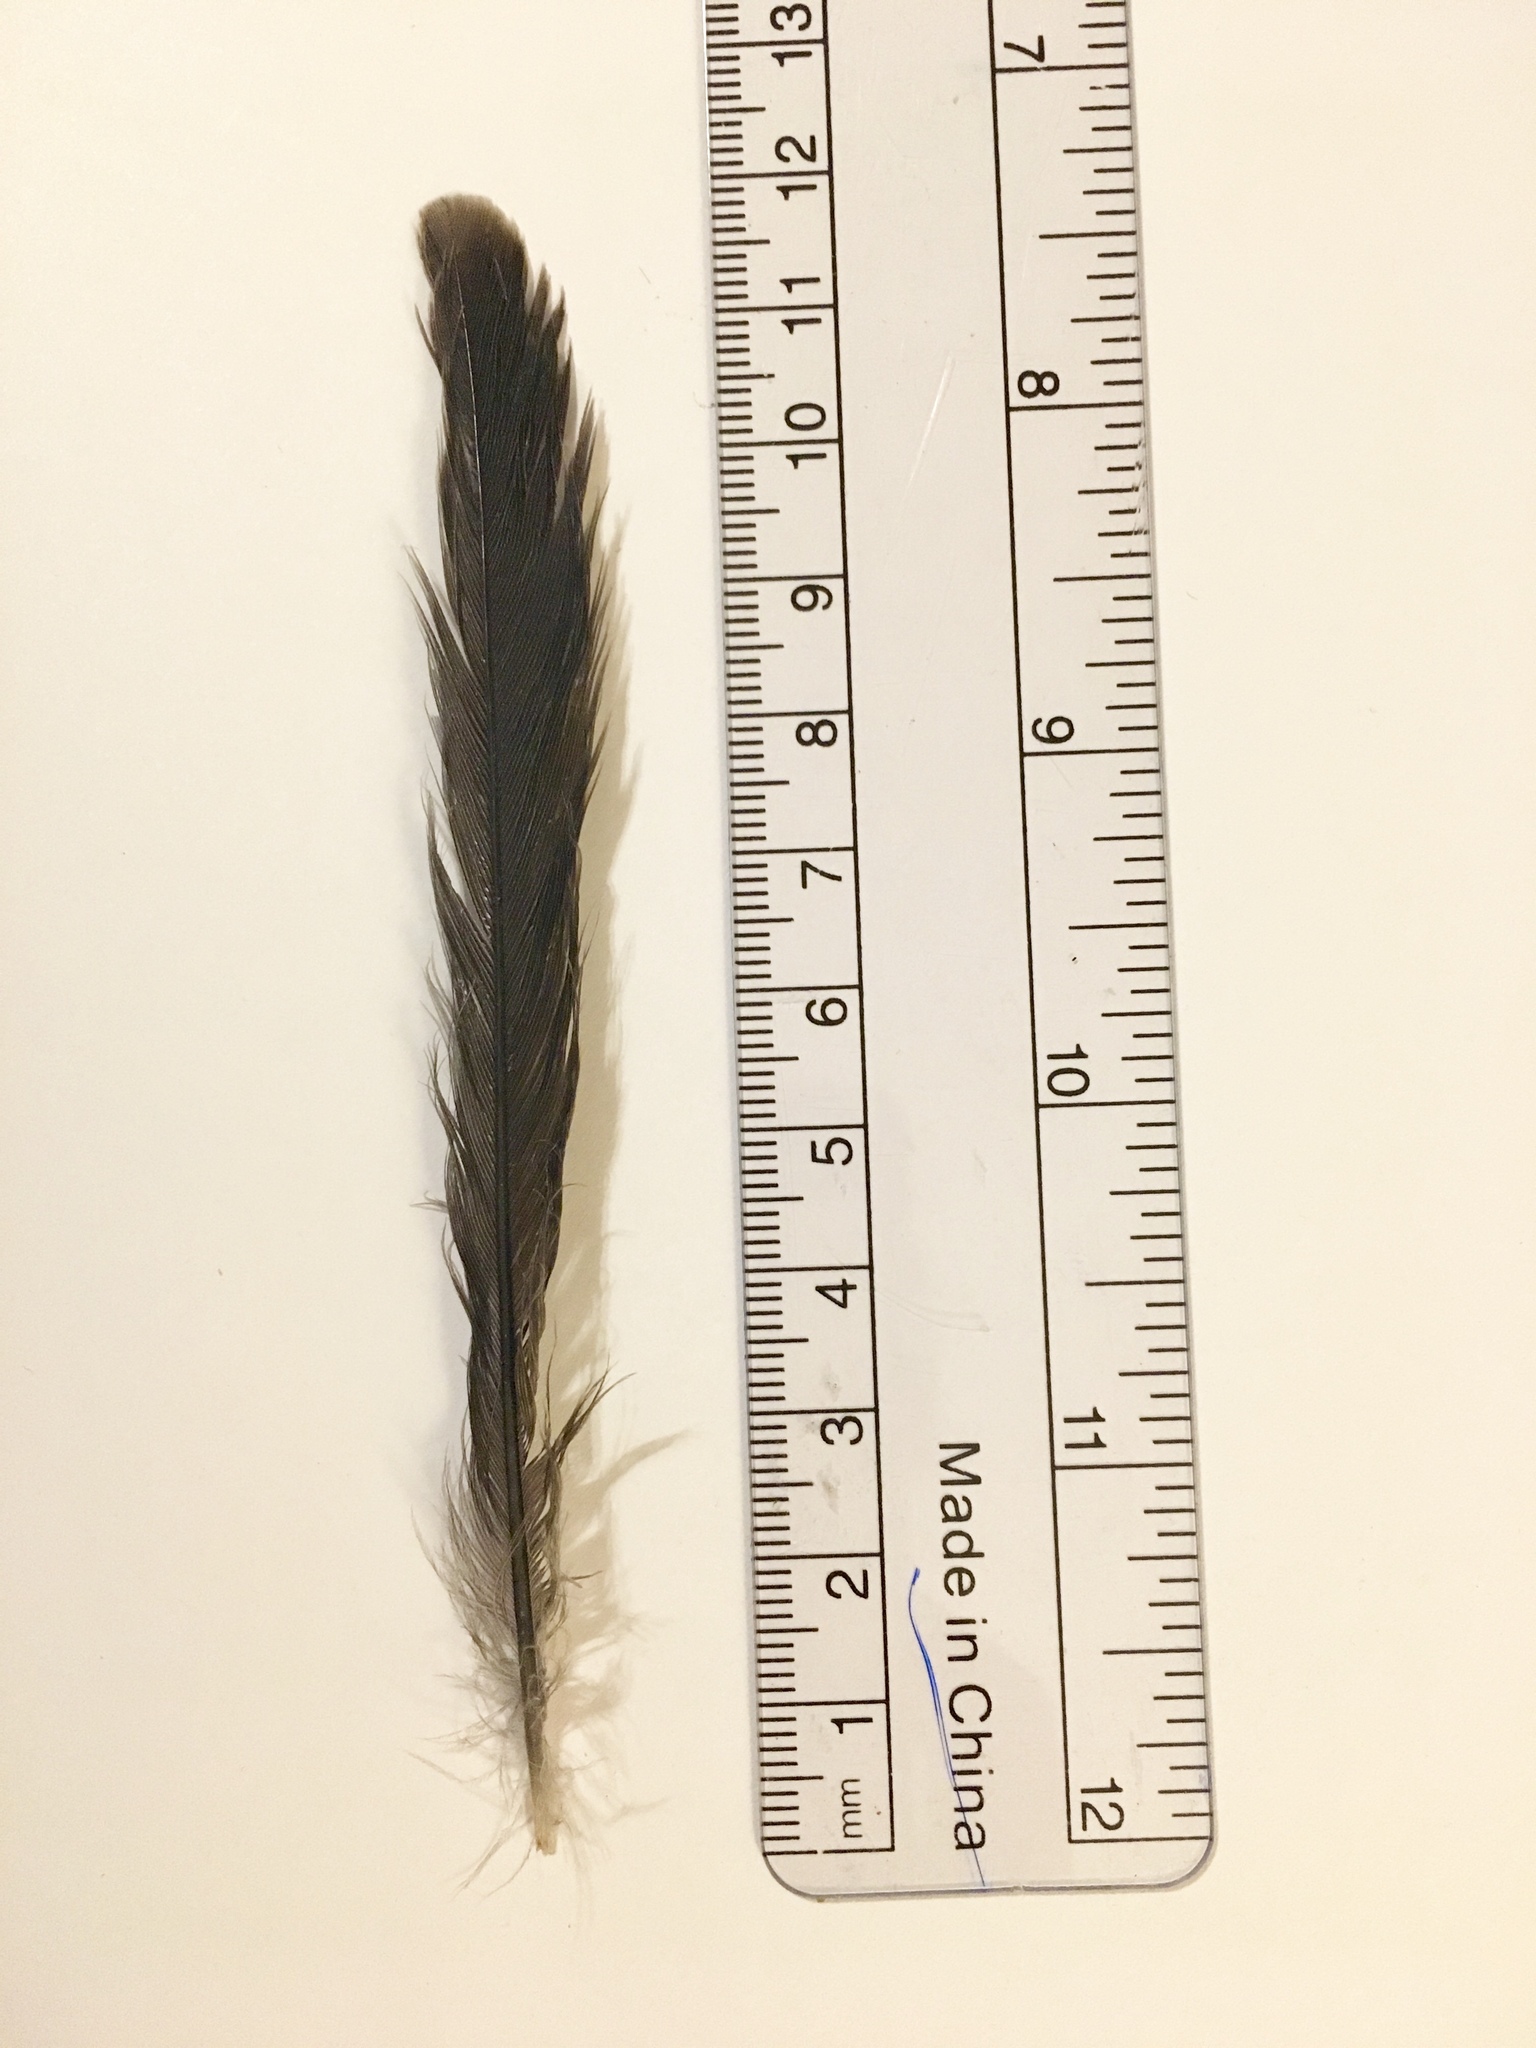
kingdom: Animalia
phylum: Chordata
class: Aves
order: Passeriformes
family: Mimidae
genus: Mimus
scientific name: Mimus polyglottos
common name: Northern mockingbird
